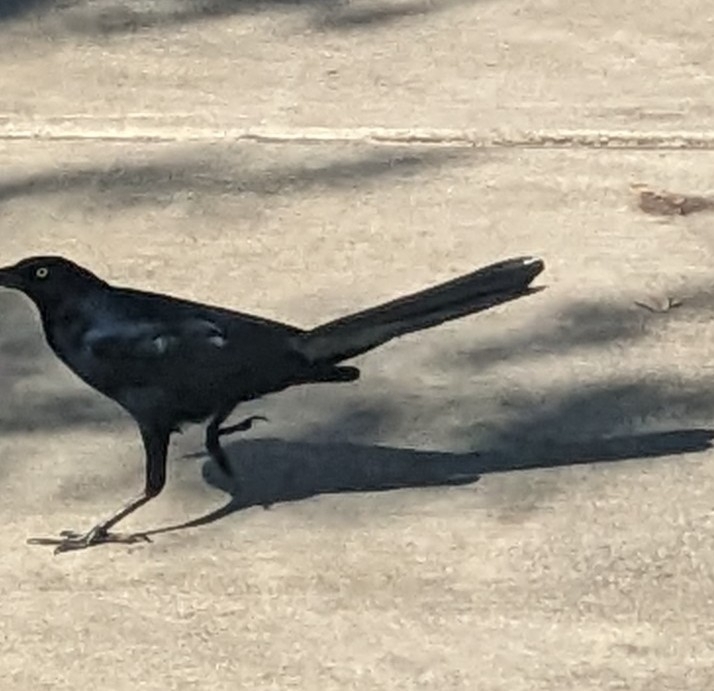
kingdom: Animalia
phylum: Chordata
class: Aves
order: Passeriformes
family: Icteridae
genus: Quiscalus
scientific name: Quiscalus mexicanus
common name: Great-tailed grackle
